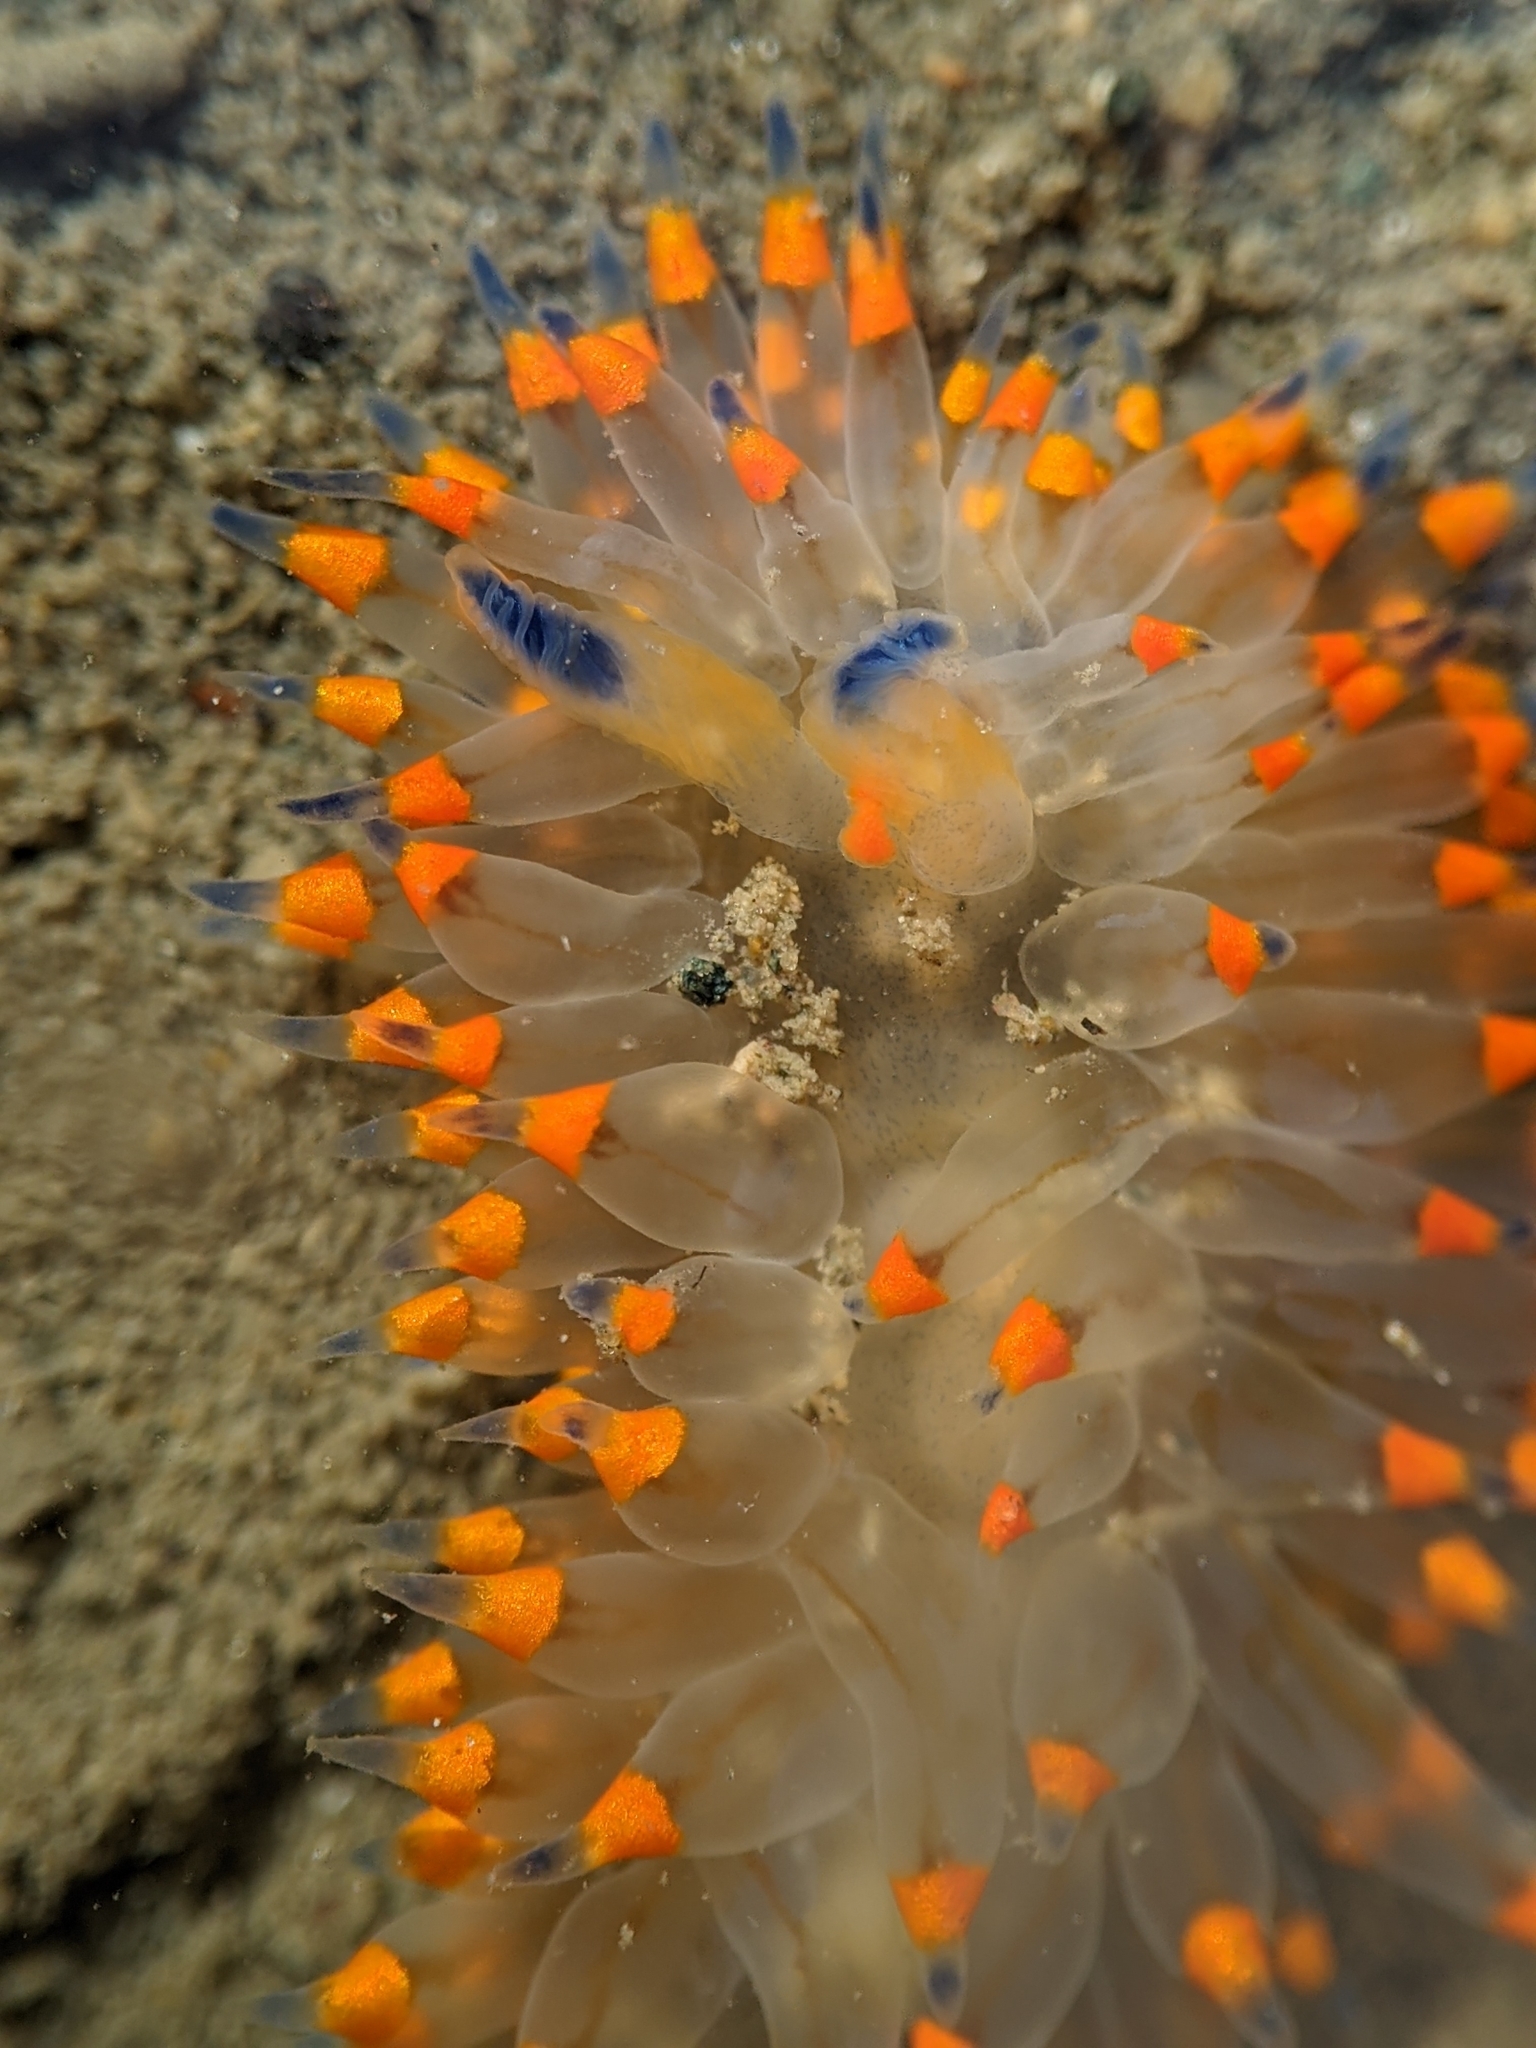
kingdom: Animalia
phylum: Mollusca
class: Gastropoda
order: Nudibranchia
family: Janolidae
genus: Antiopella
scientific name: Antiopella barbarensis
